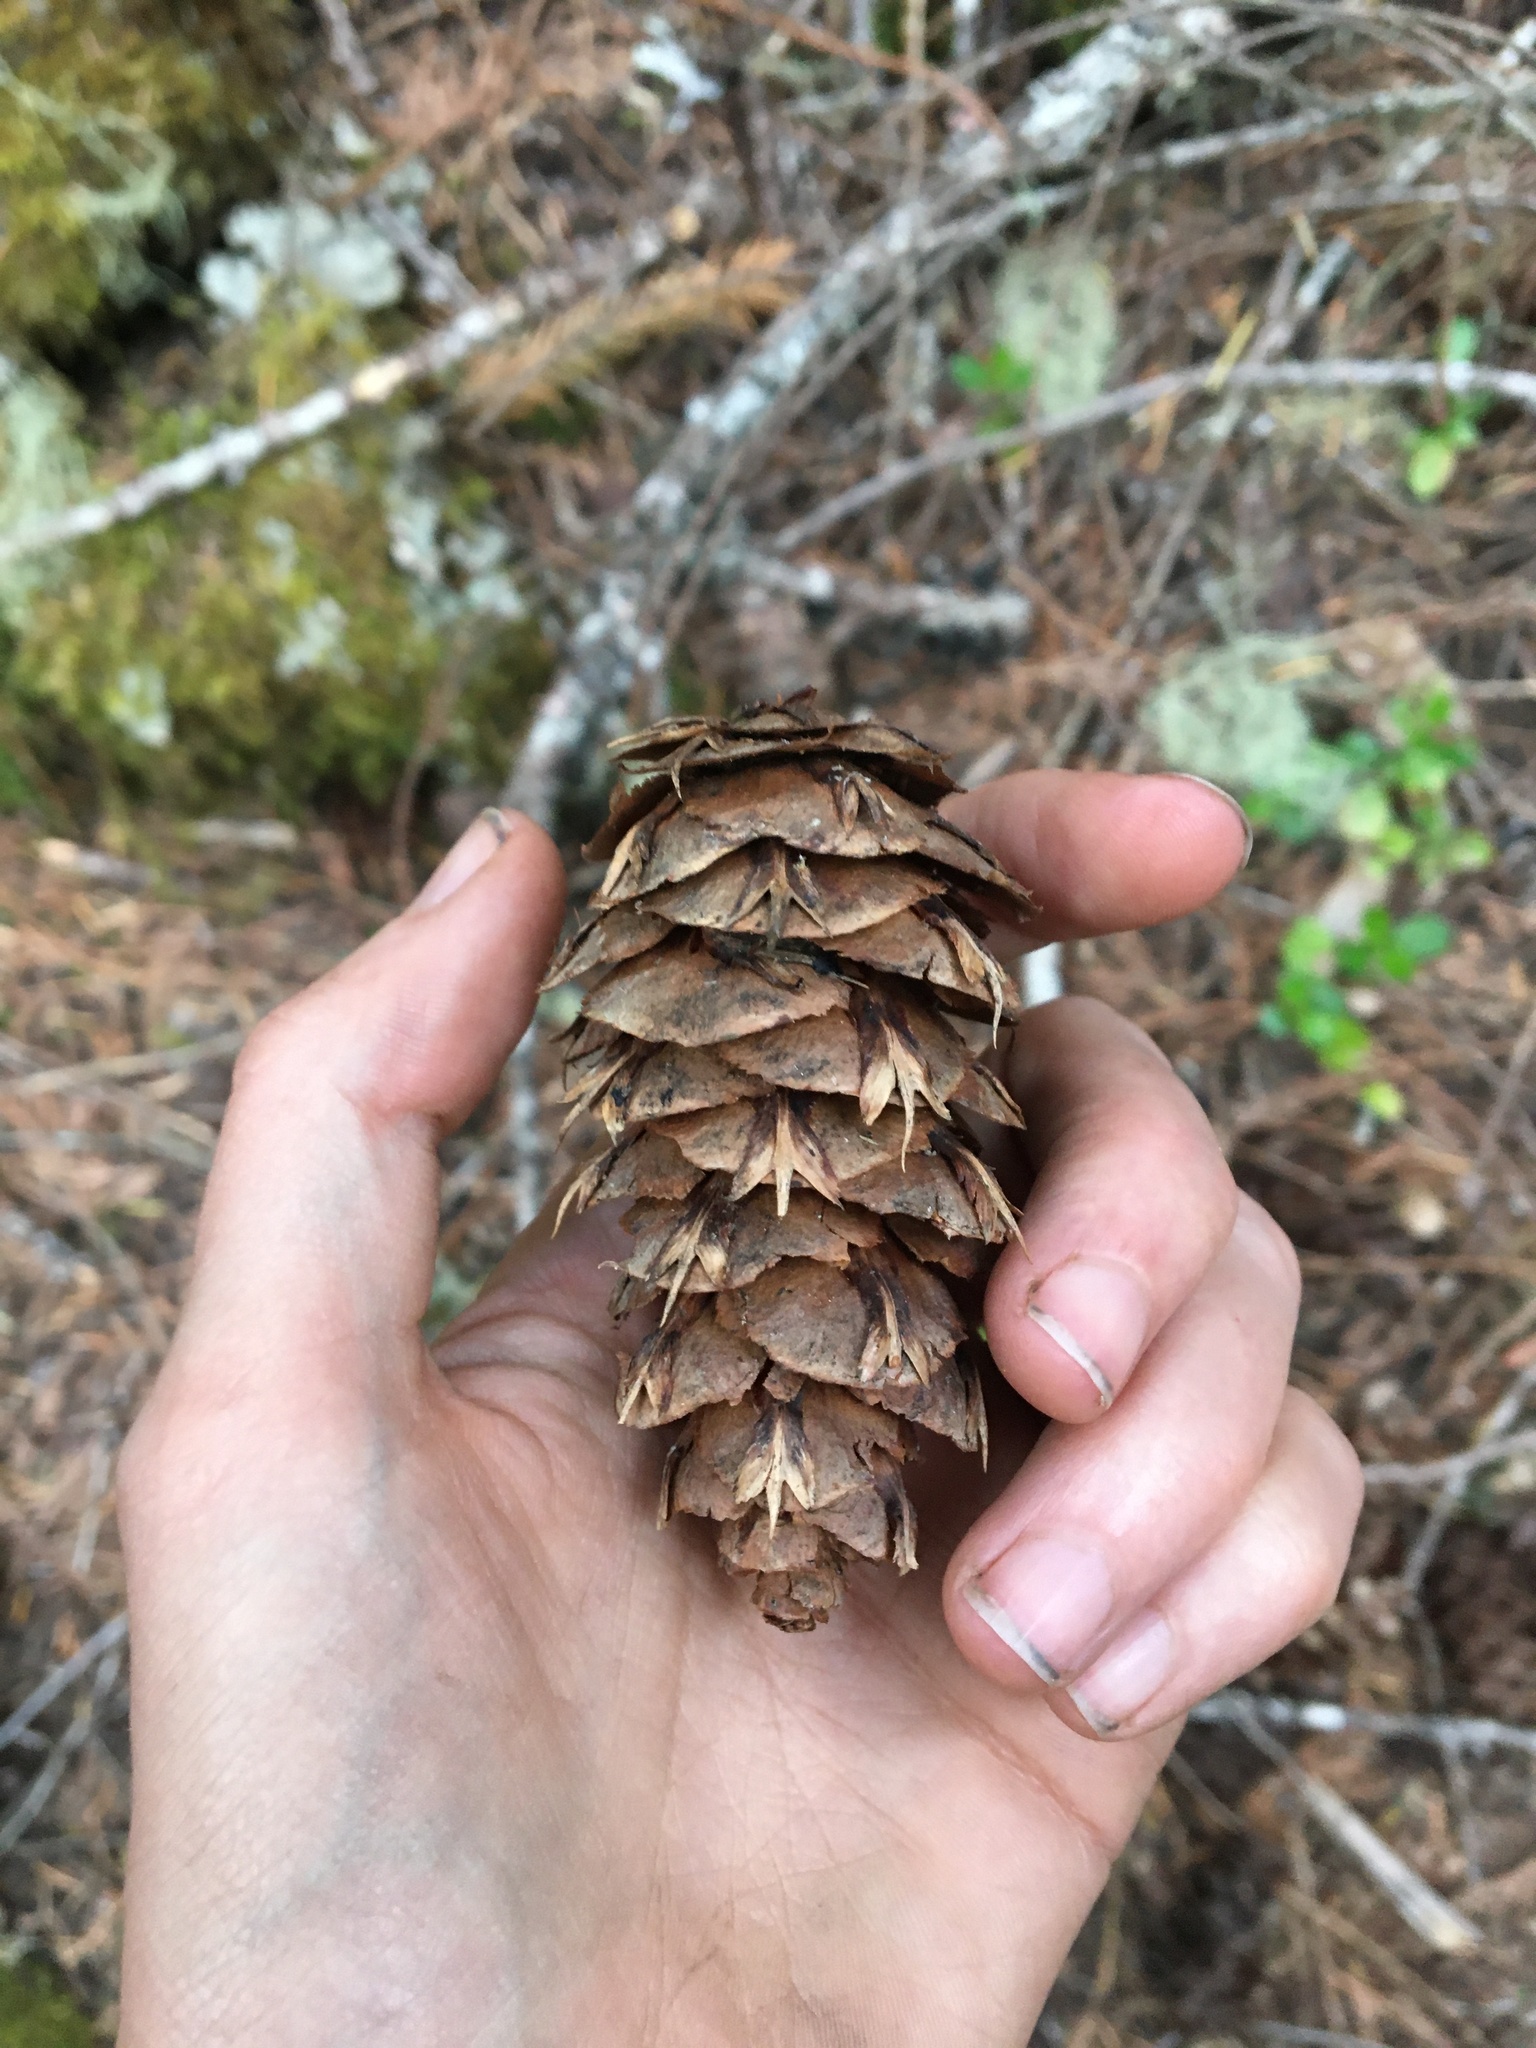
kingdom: Plantae
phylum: Tracheophyta
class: Pinopsida
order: Pinales
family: Pinaceae
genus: Pseudotsuga
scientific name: Pseudotsuga menziesii
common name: Douglas fir
